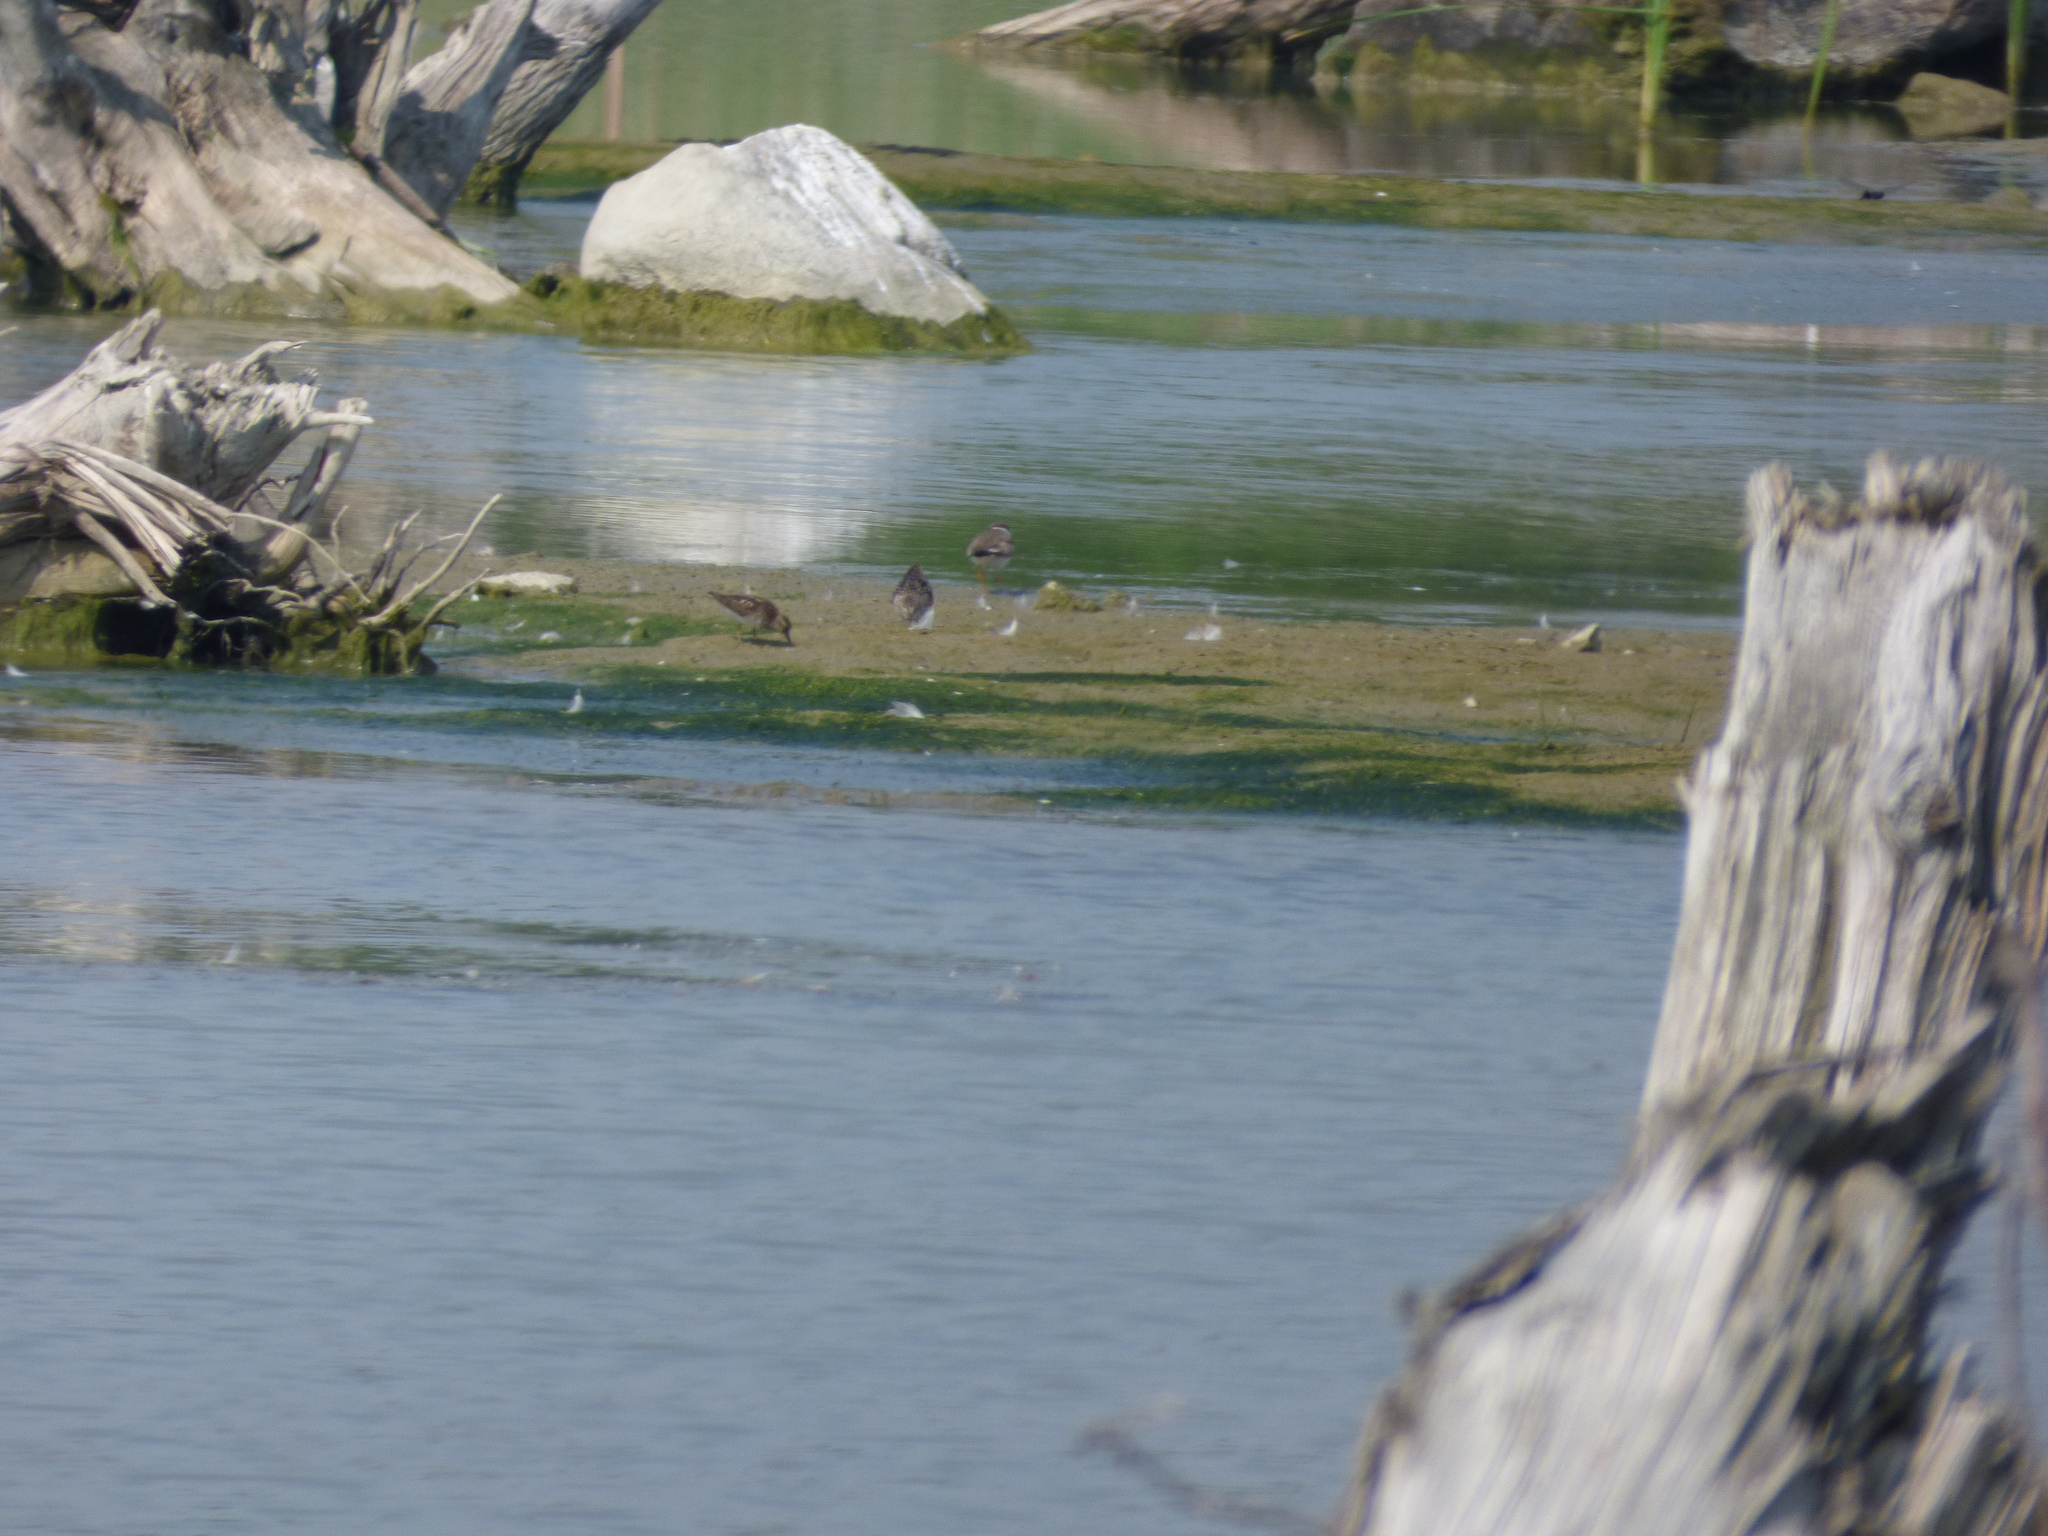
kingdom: Animalia
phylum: Chordata
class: Aves
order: Charadriiformes
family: Scolopacidae
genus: Calidris
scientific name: Calidris minutilla
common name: Least sandpiper
